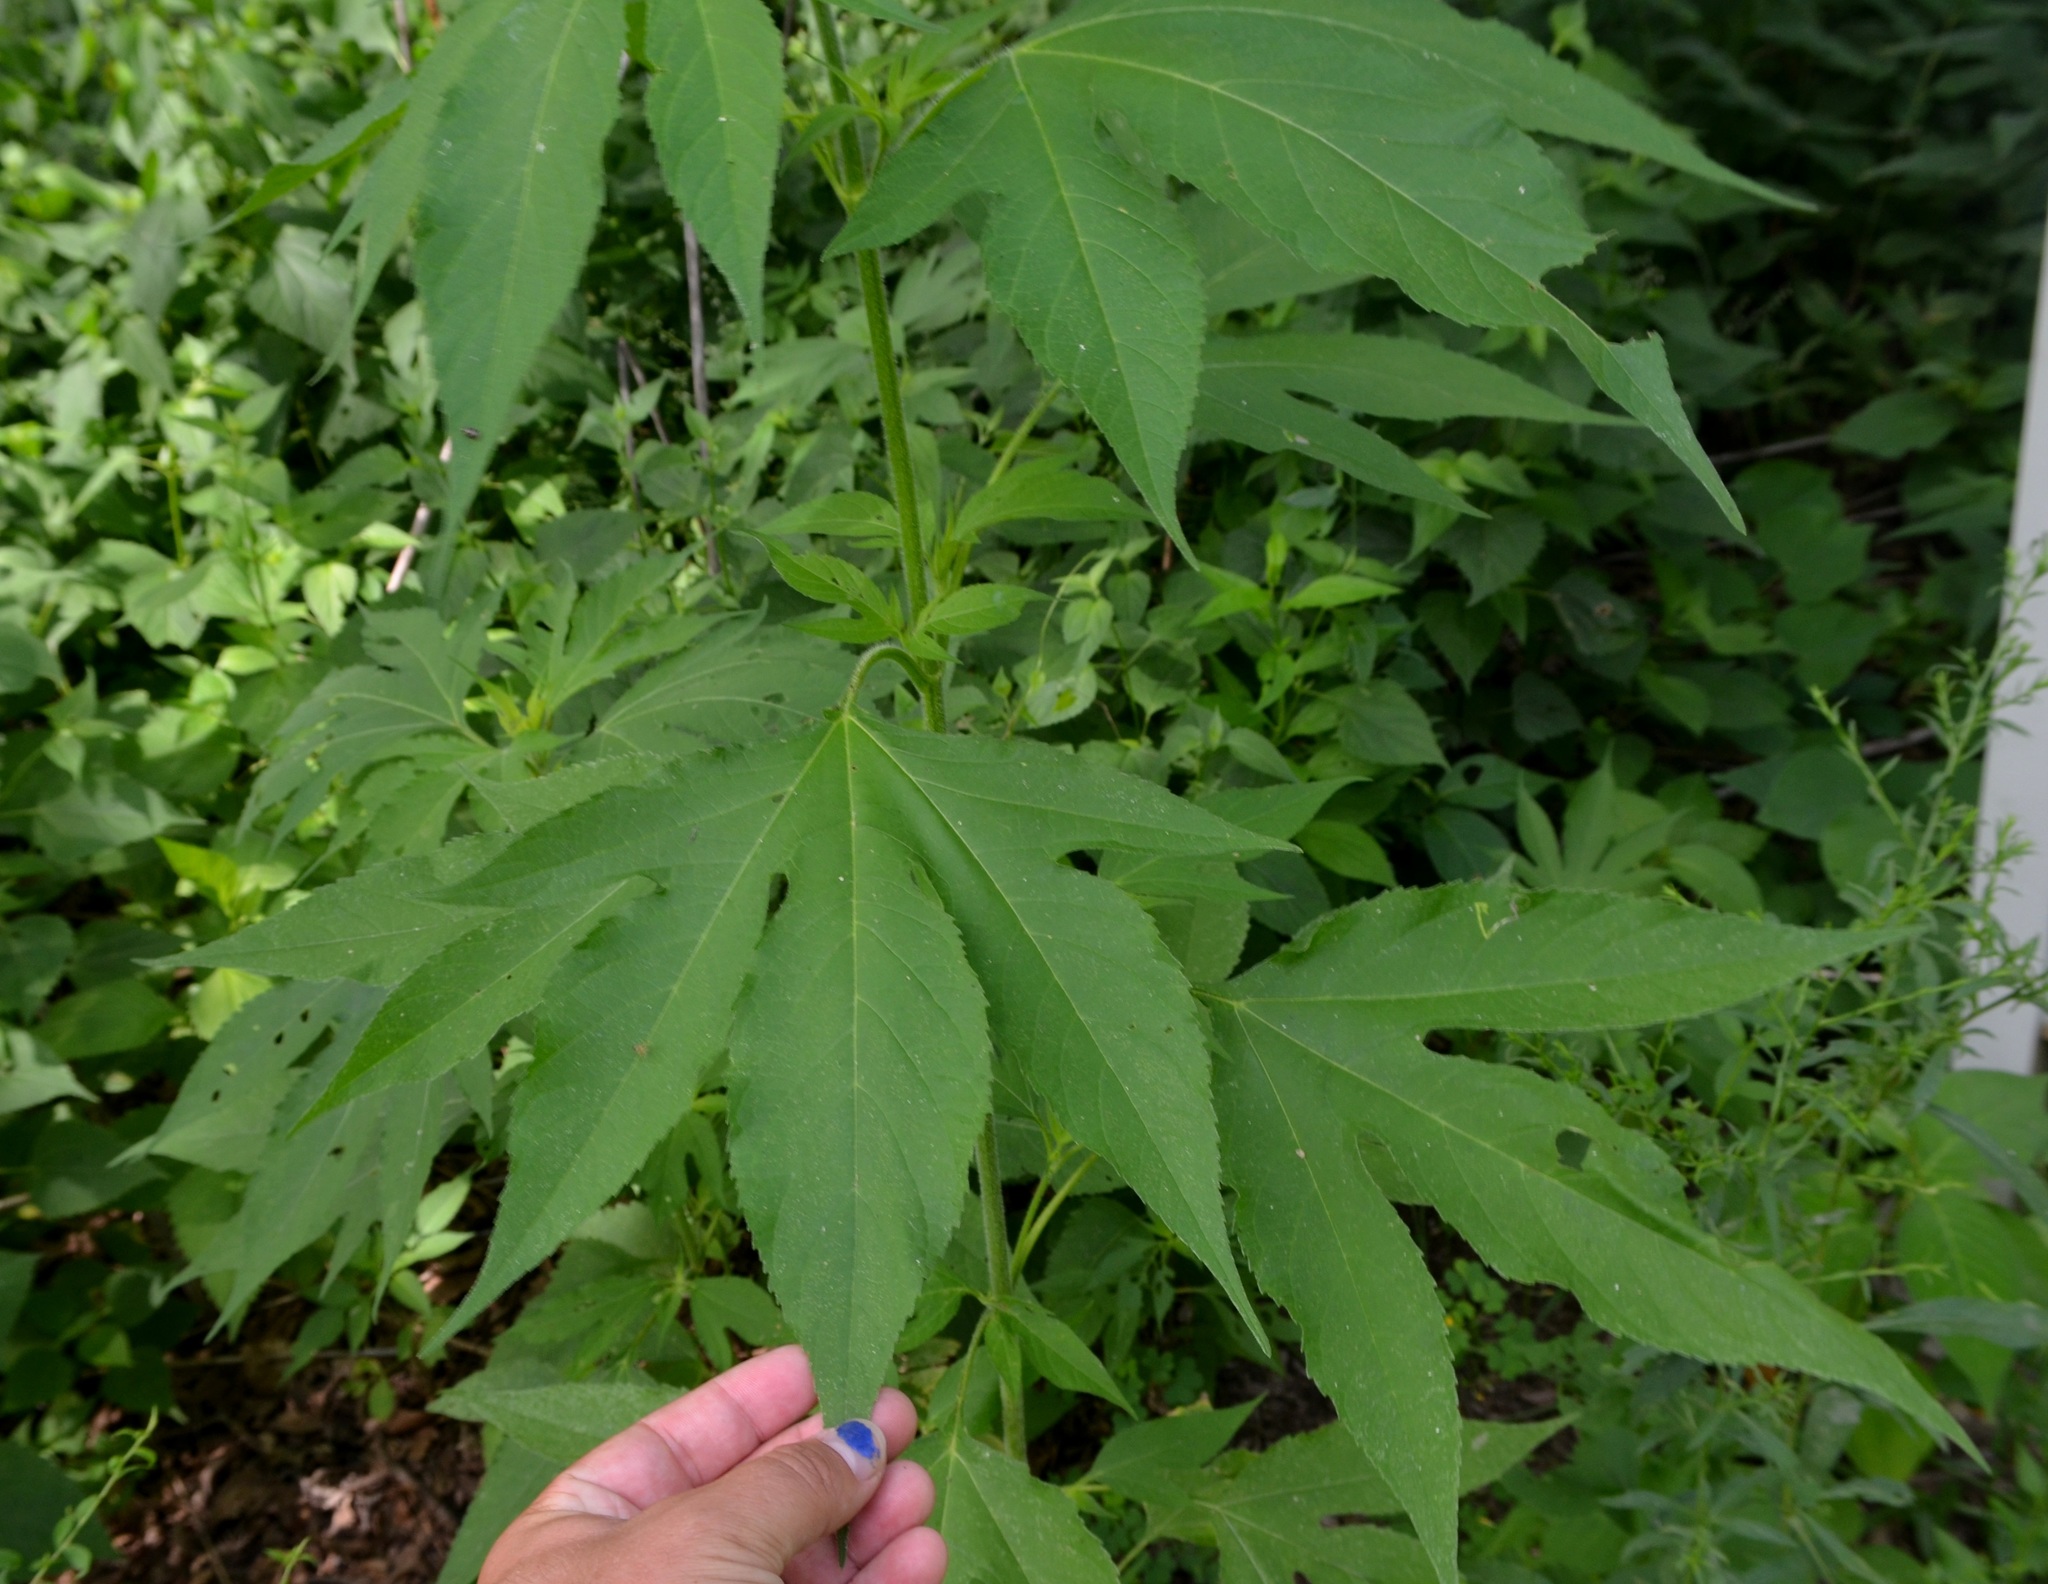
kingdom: Plantae
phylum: Tracheophyta
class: Magnoliopsida
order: Asterales
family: Asteraceae
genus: Ambrosia
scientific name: Ambrosia trifida
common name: Giant ragweed
